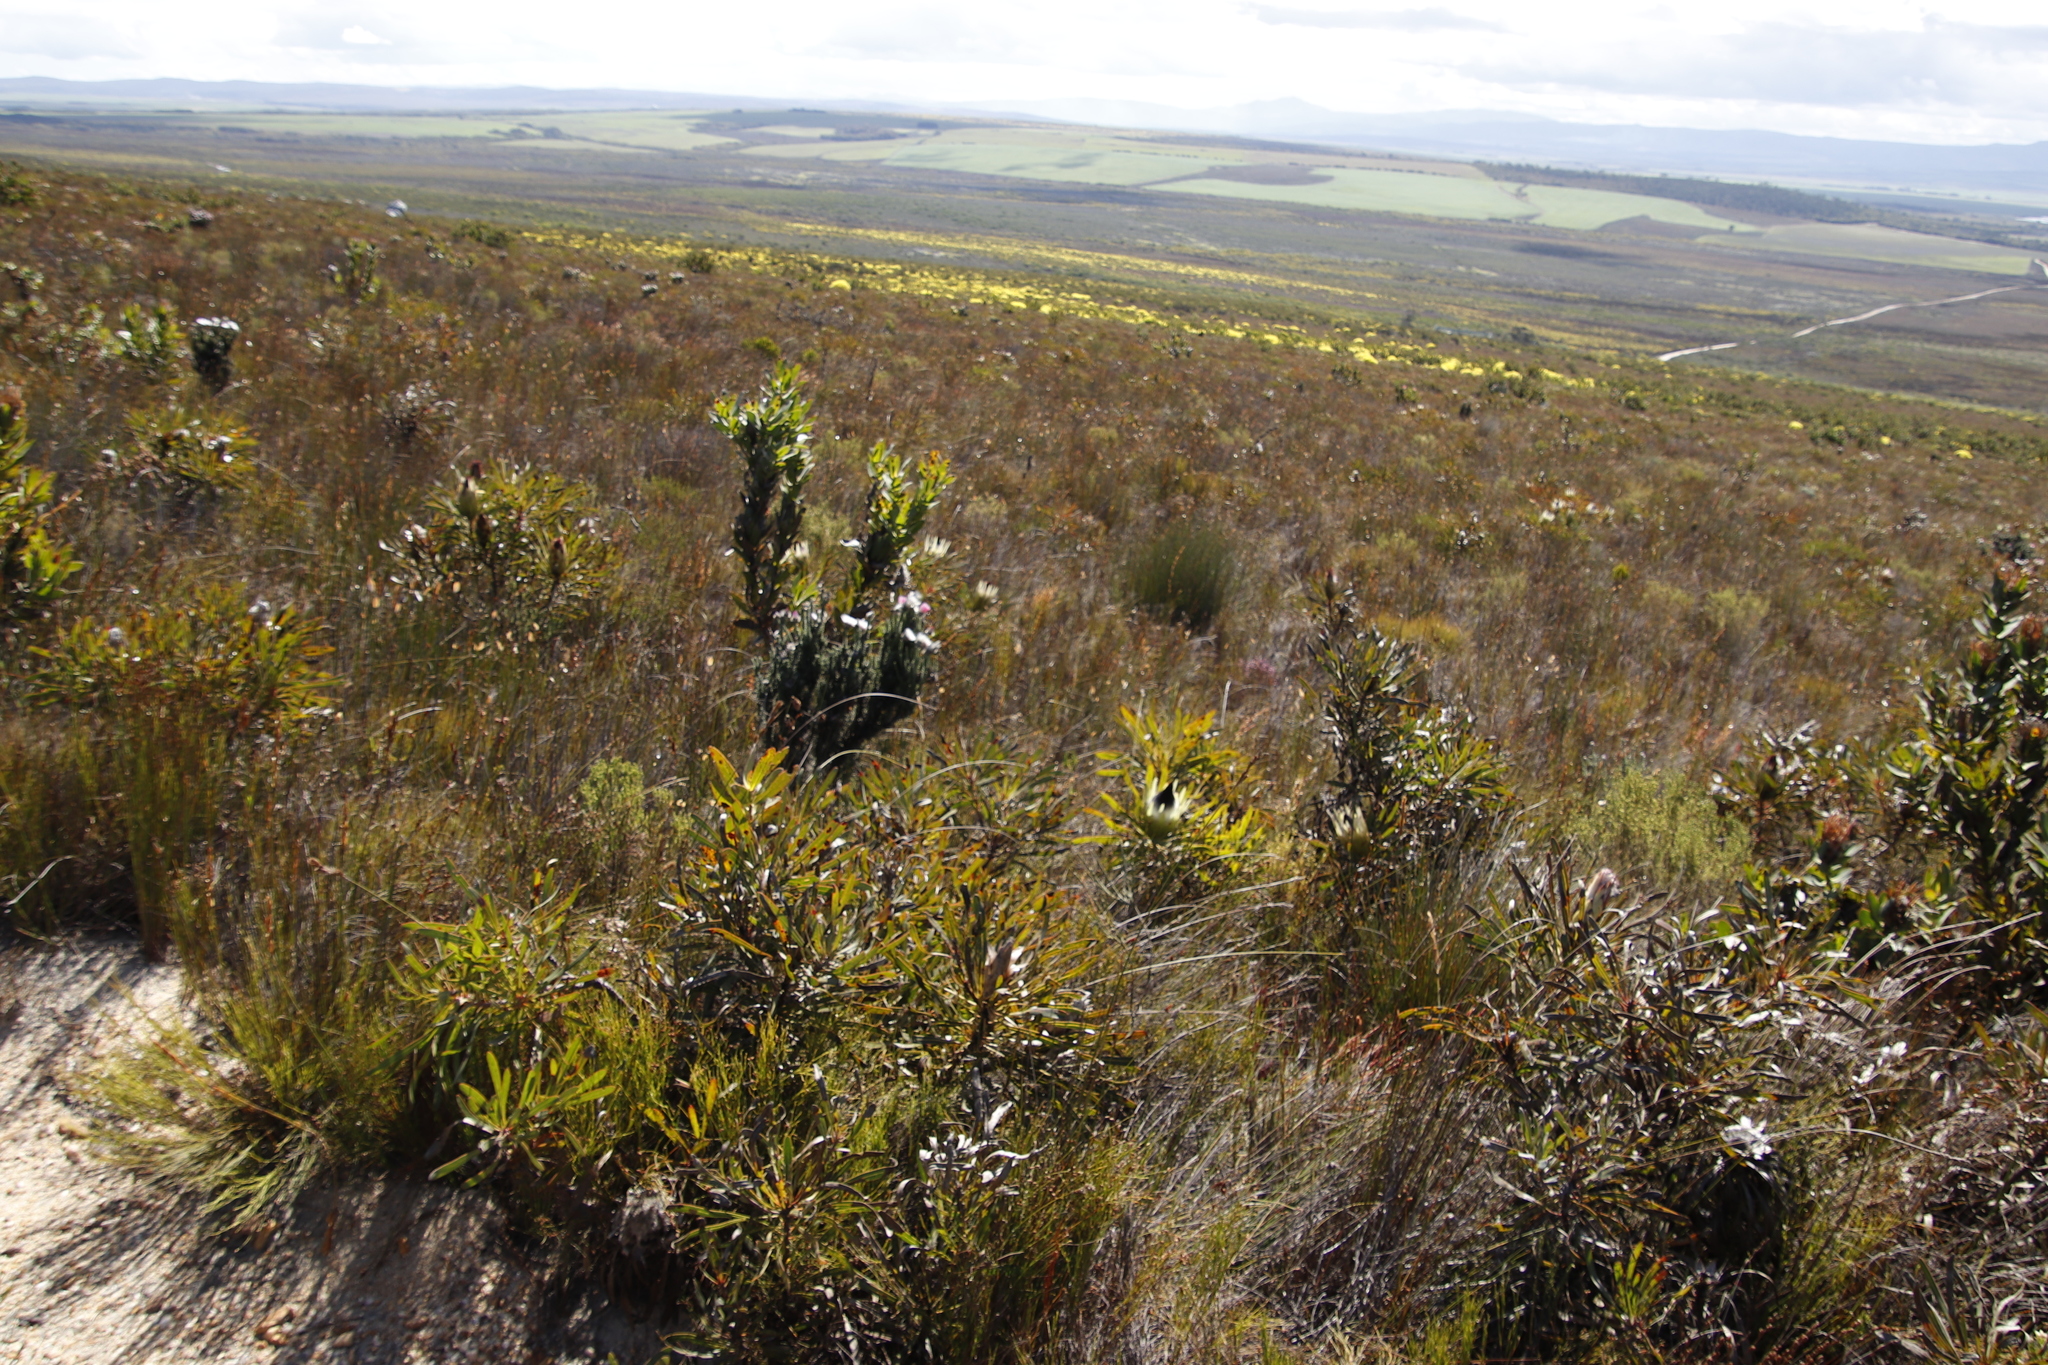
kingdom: Plantae
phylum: Tracheophyta
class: Magnoliopsida
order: Proteales
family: Proteaceae
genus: Protea
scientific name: Protea longifolia
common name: Long-leaf sugarbush
